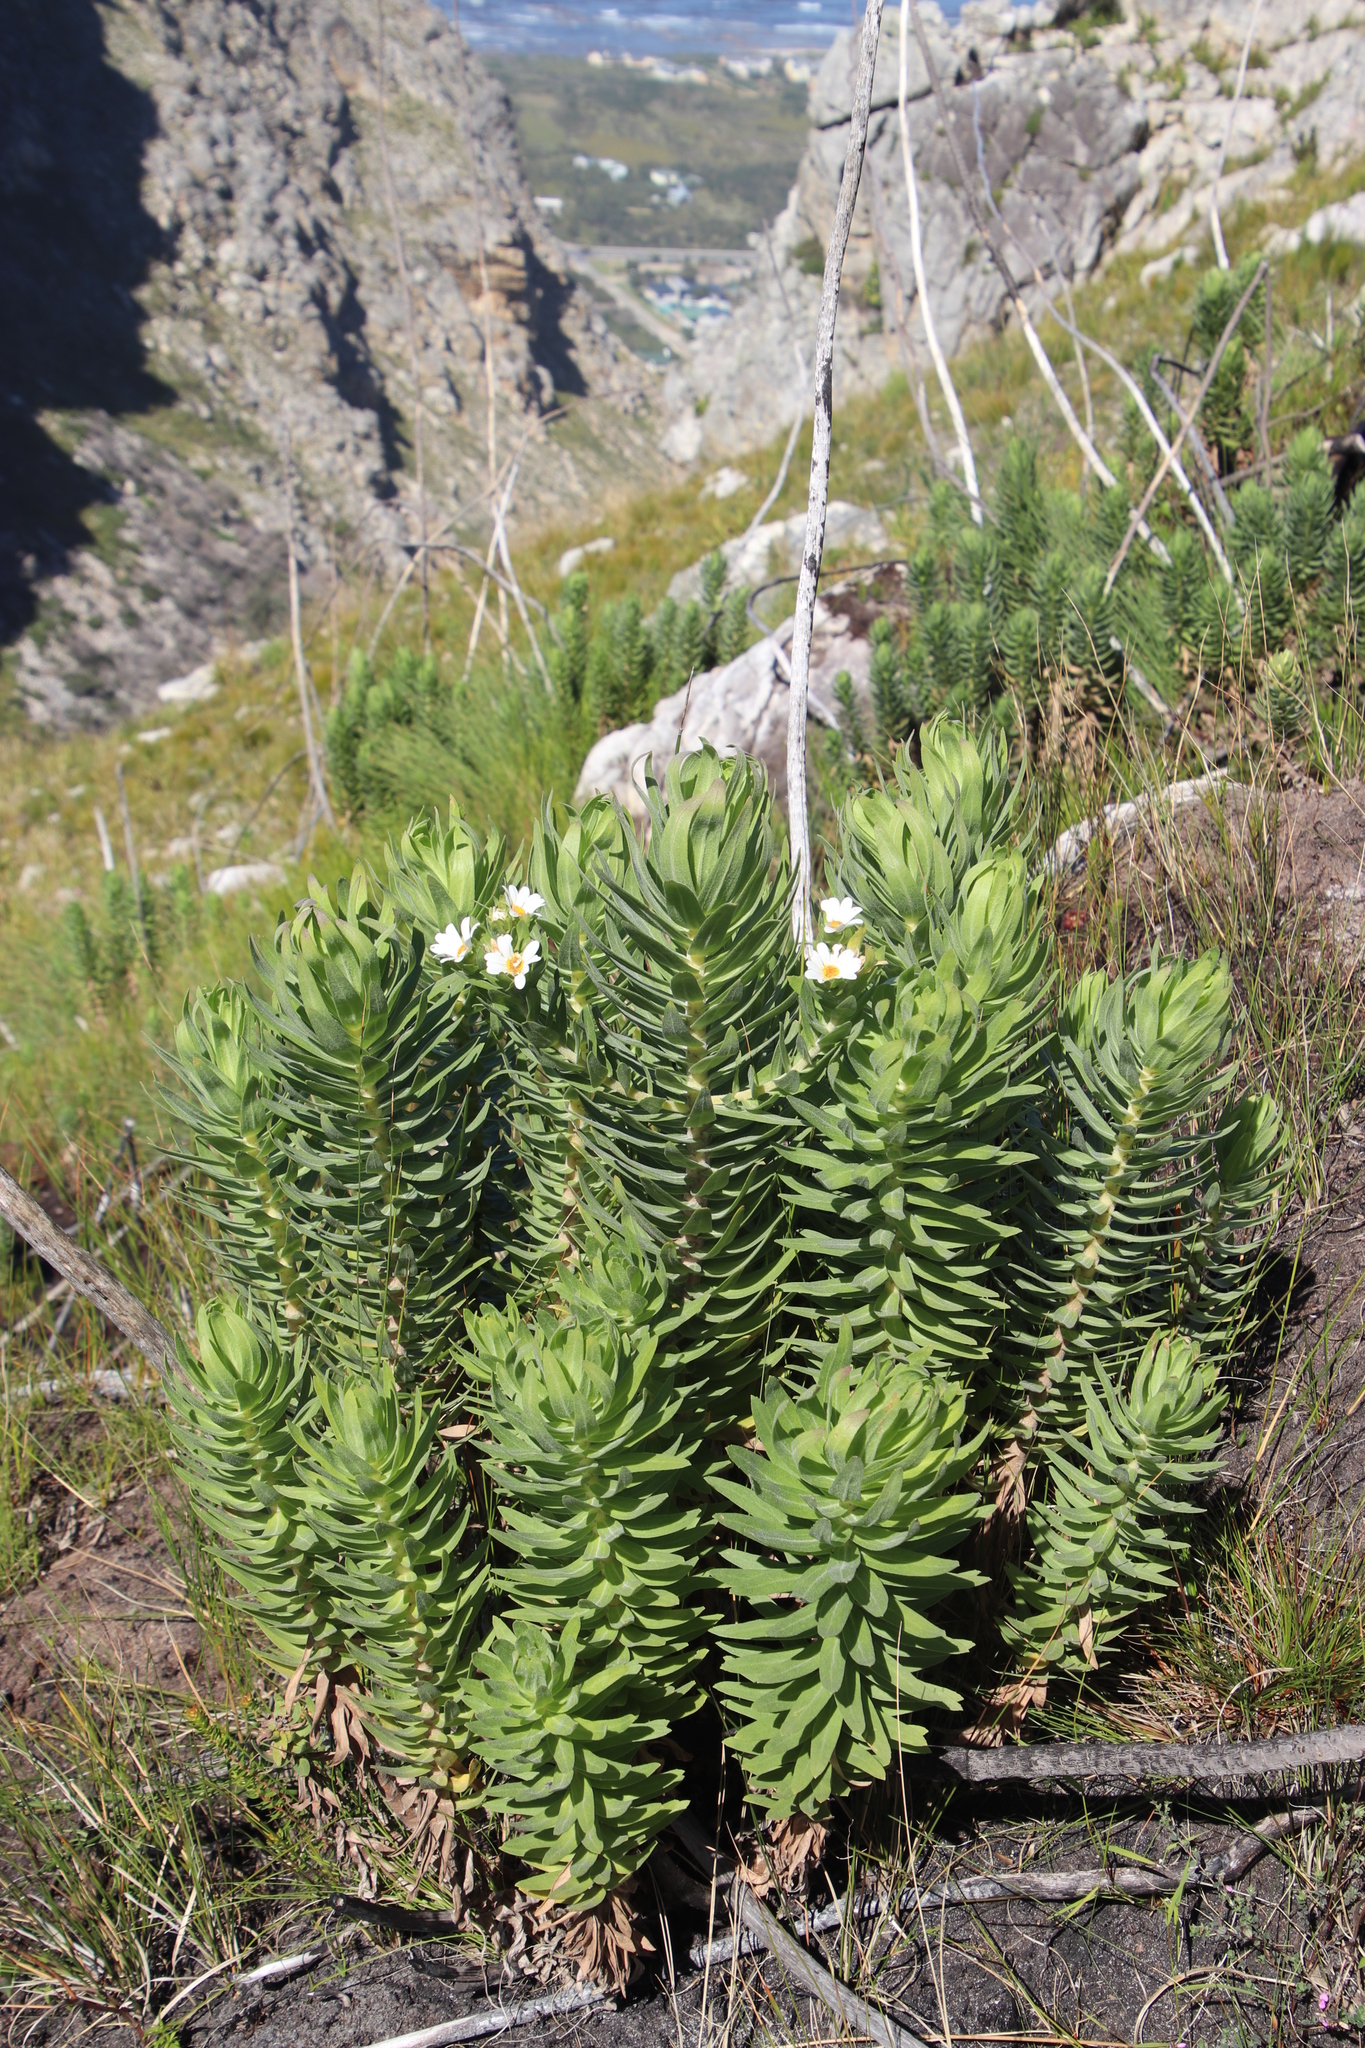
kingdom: Plantae
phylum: Tracheophyta
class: Magnoliopsida
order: Asterales
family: Asteraceae
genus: Osmitopsis
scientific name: Osmitopsis asteriscoides
